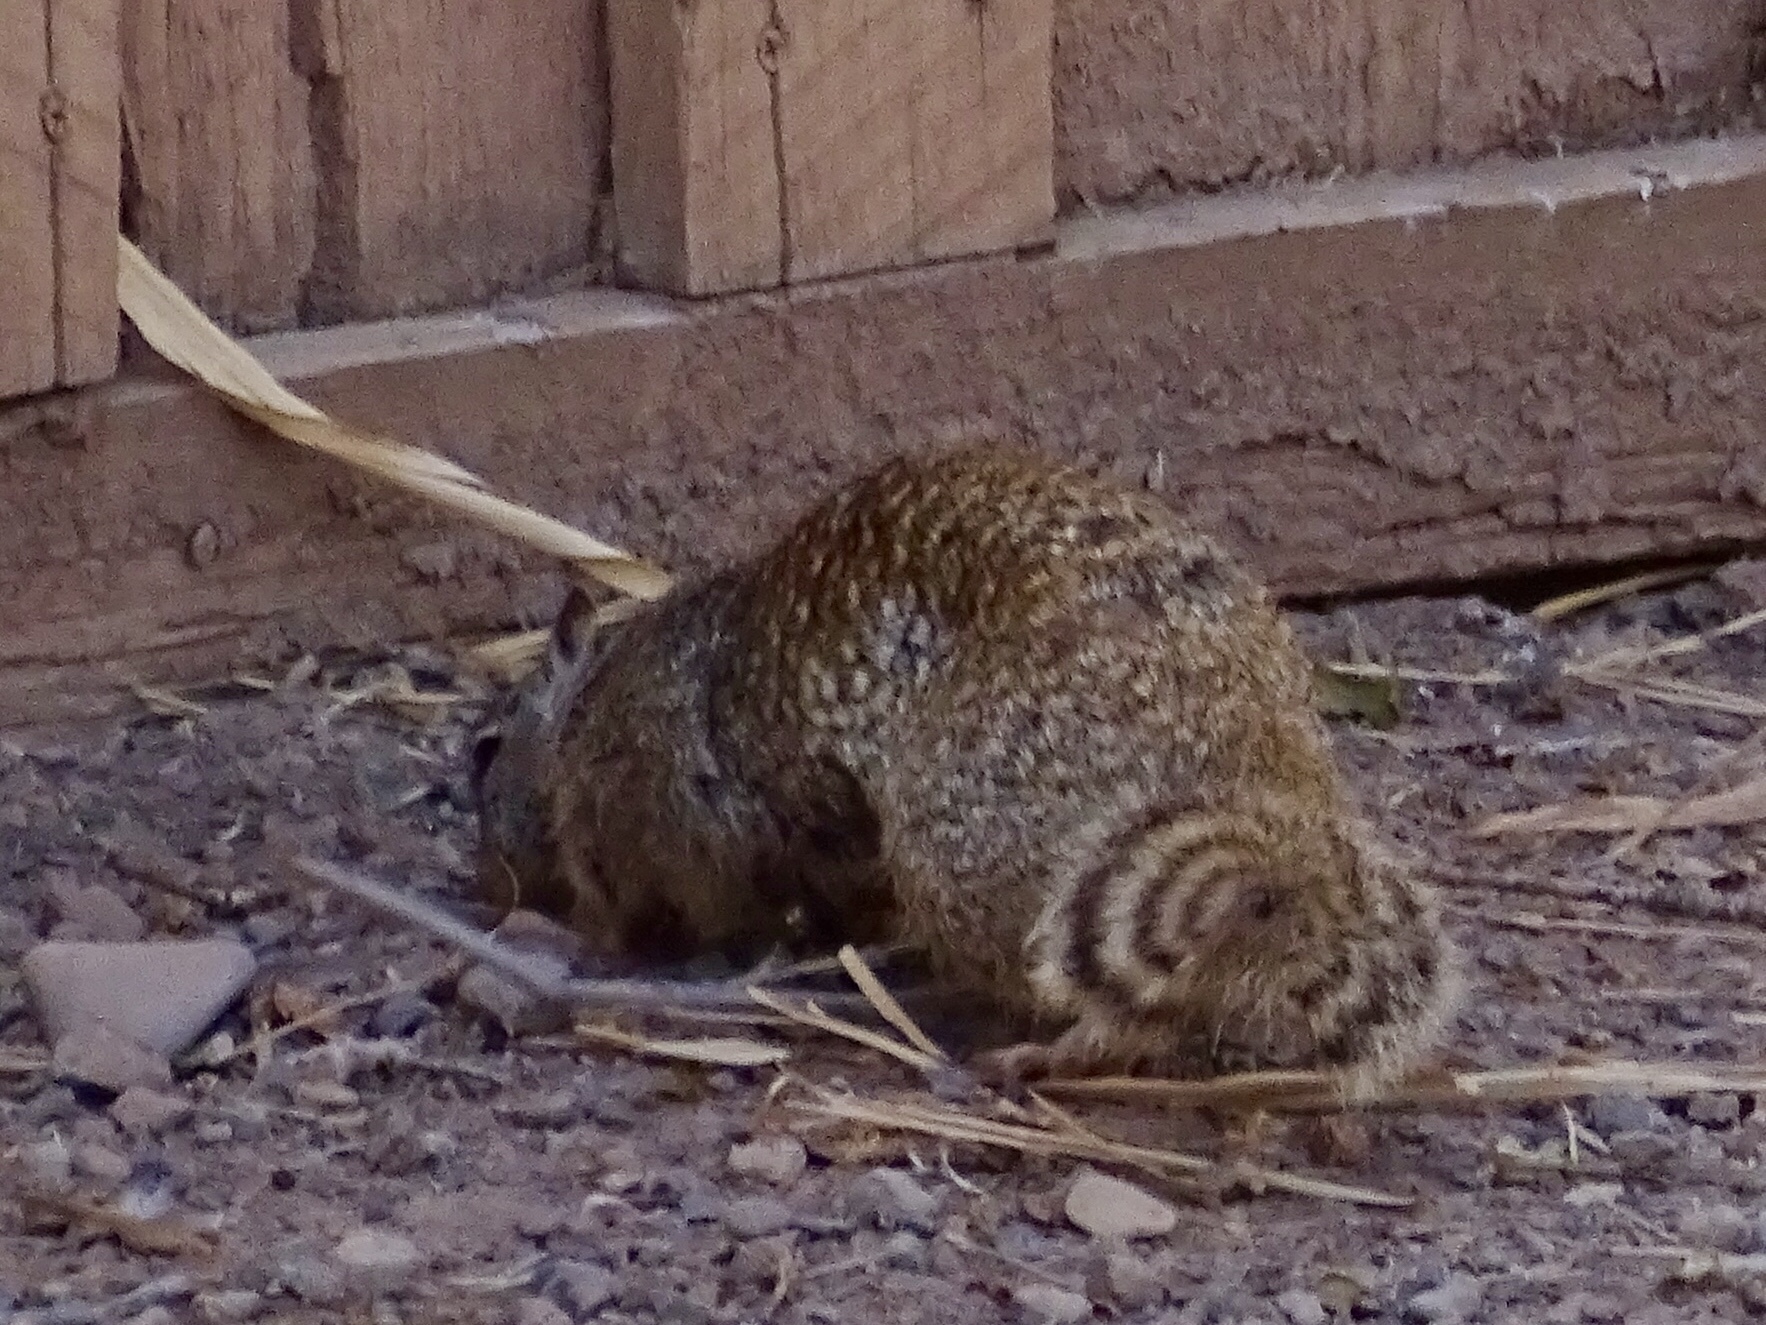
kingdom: Animalia
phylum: Chordata
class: Mammalia
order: Rodentia
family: Sciuridae
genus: Otospermophilus
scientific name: Otospermophilus variegatus
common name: Rock squirrel
